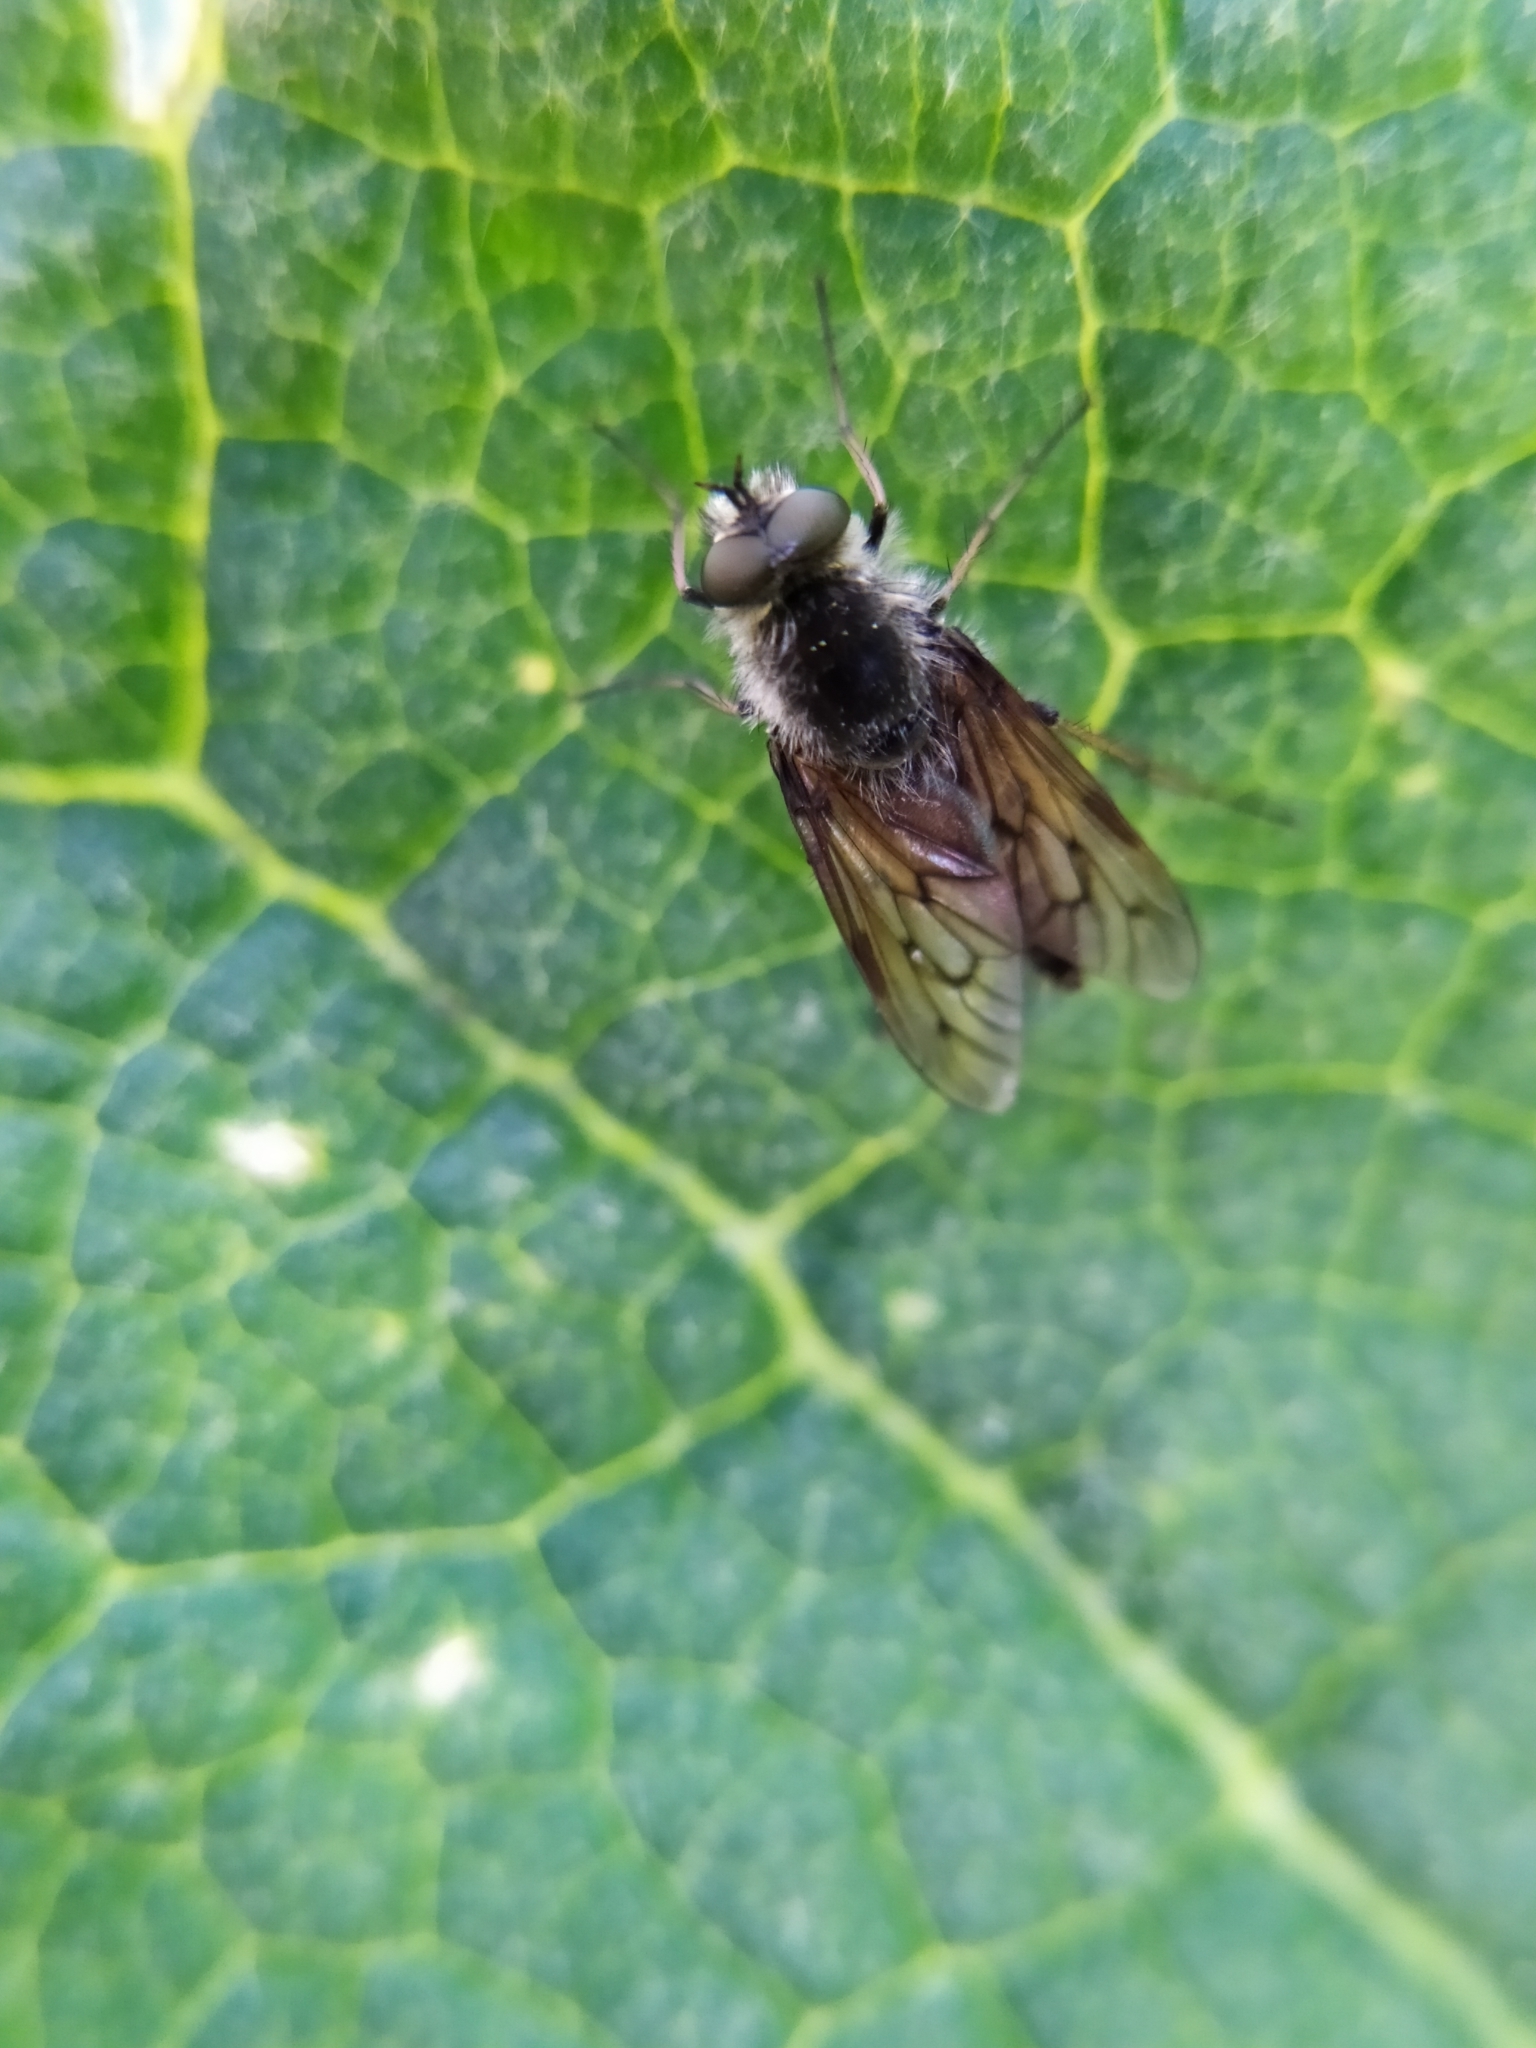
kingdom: Animalia
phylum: Arthropoda
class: Insecta
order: Diptera
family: Therevidae
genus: Thereva
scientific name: Thereva cincta
